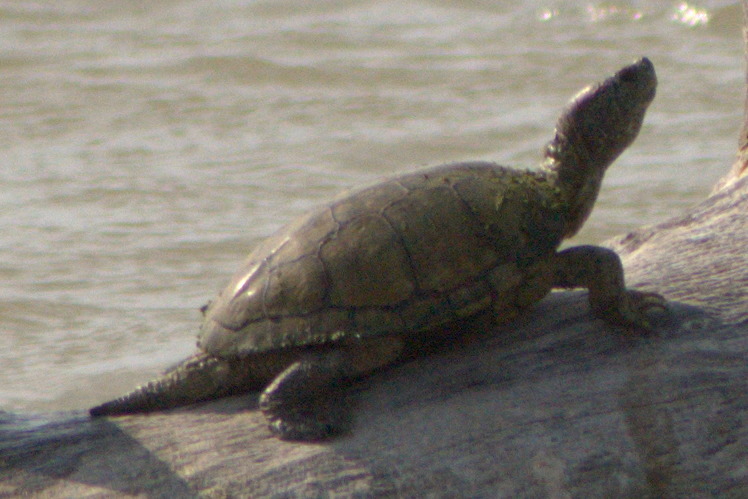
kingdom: Animalia
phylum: Chordata
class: Testudines
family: Emydidae
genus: Trachemys
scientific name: Trachemys scripta
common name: Slider
